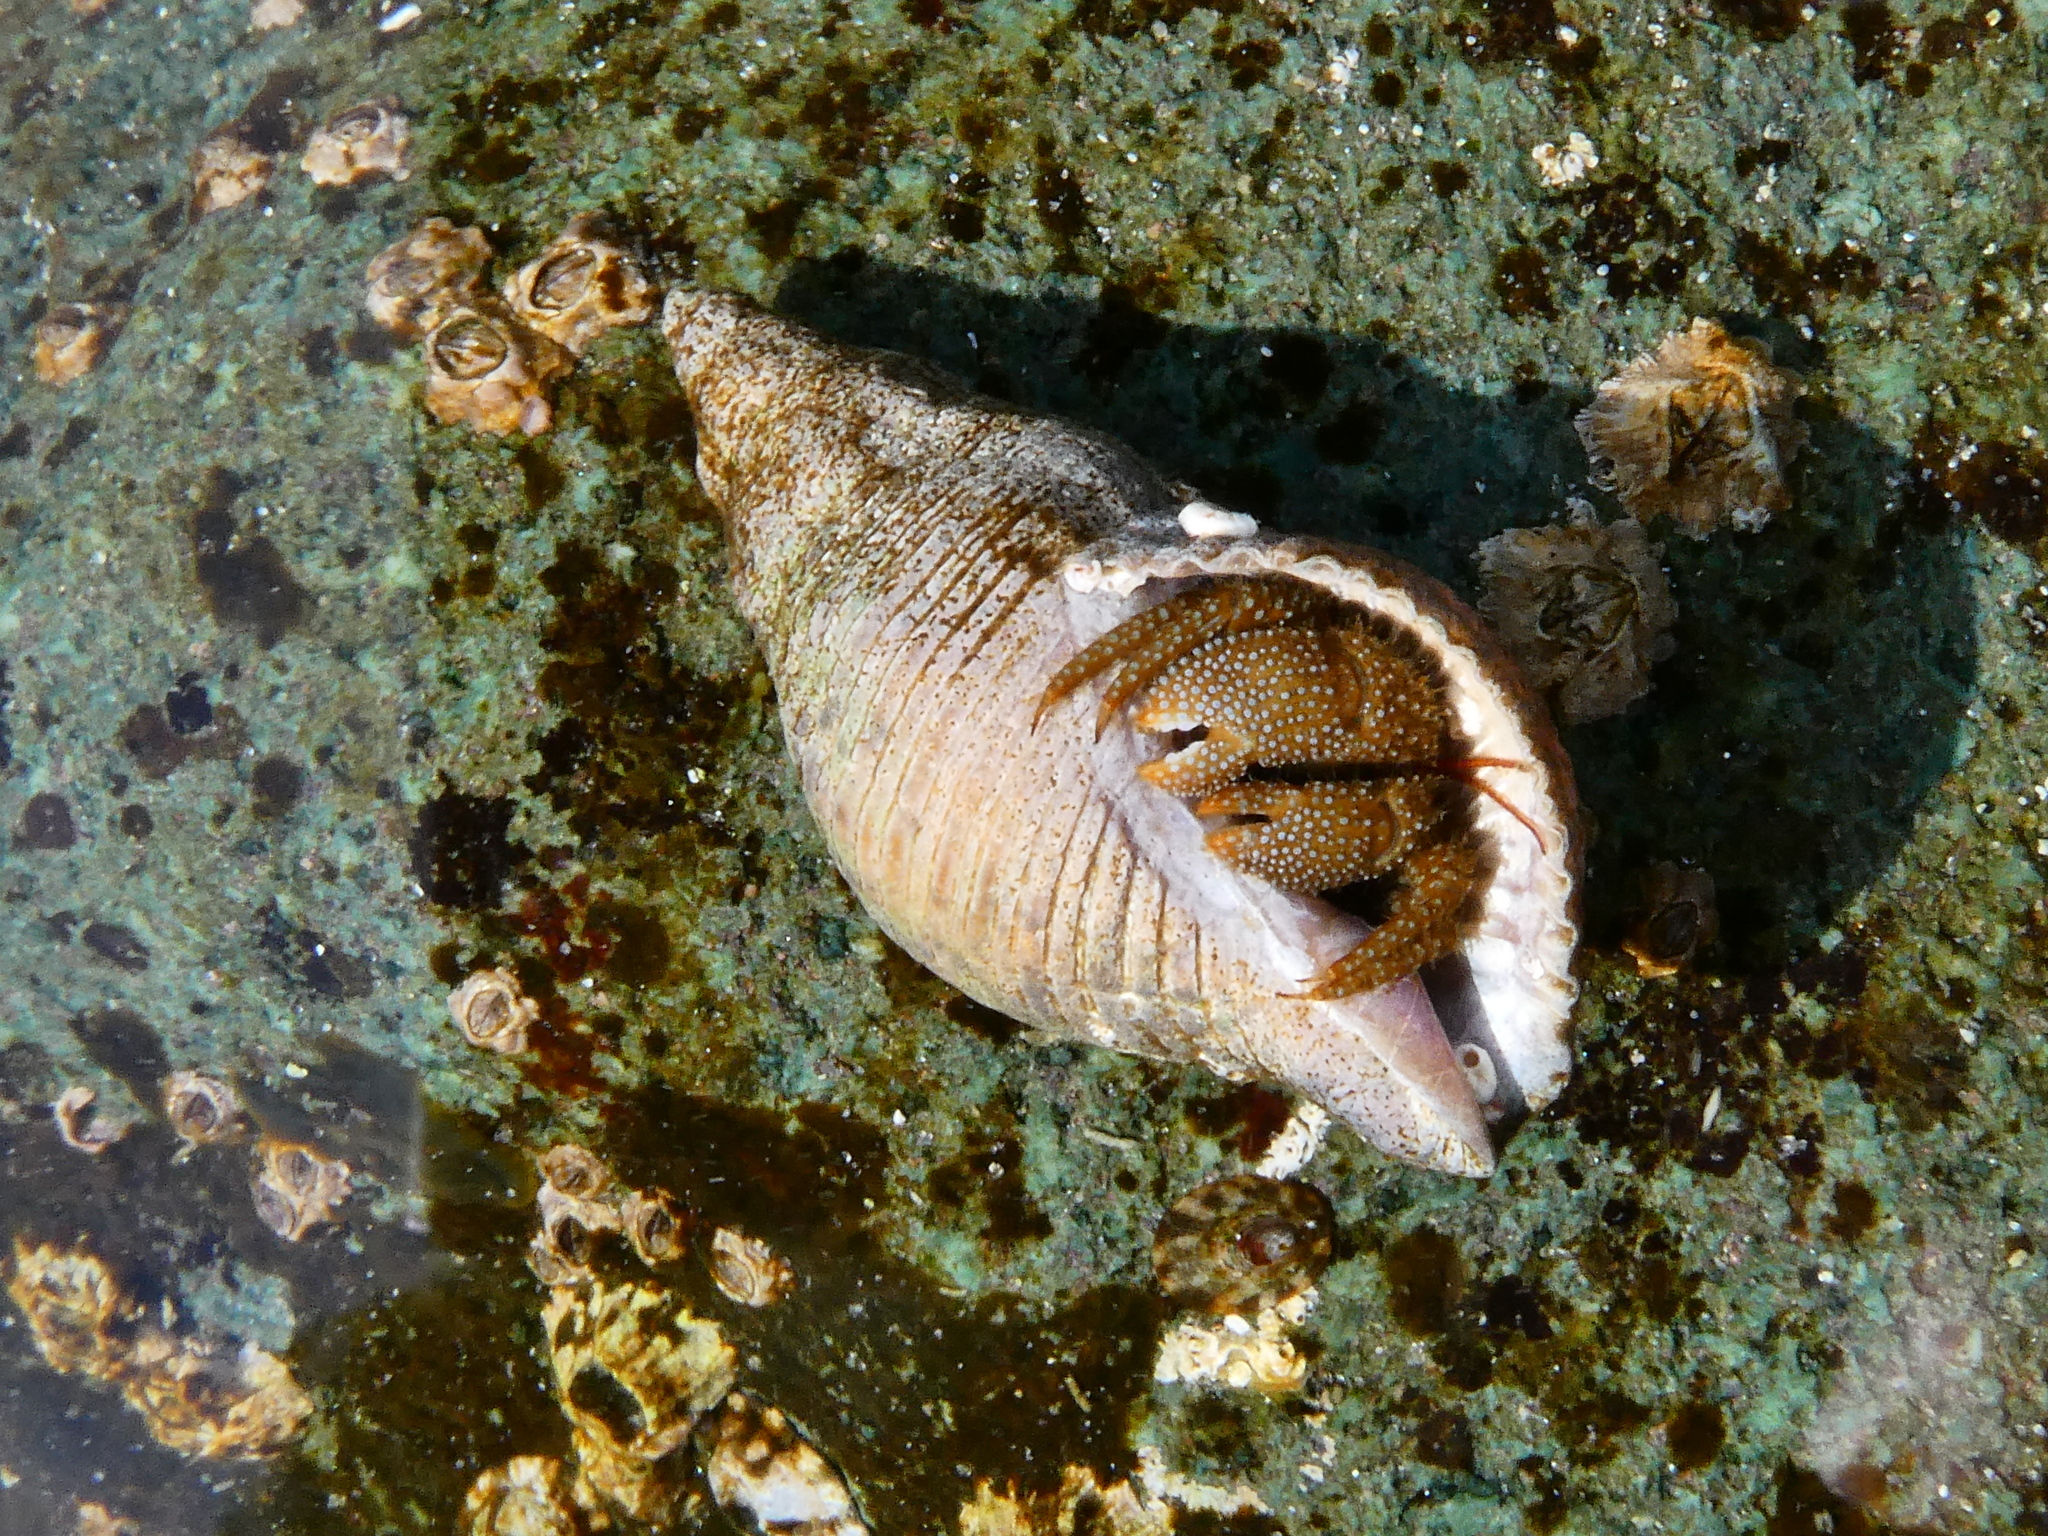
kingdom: Animalia
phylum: Arthropoda
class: Malacostraca
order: Decapoda
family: Paguridae
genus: Pagurus
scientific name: Pagurus granosimanus
